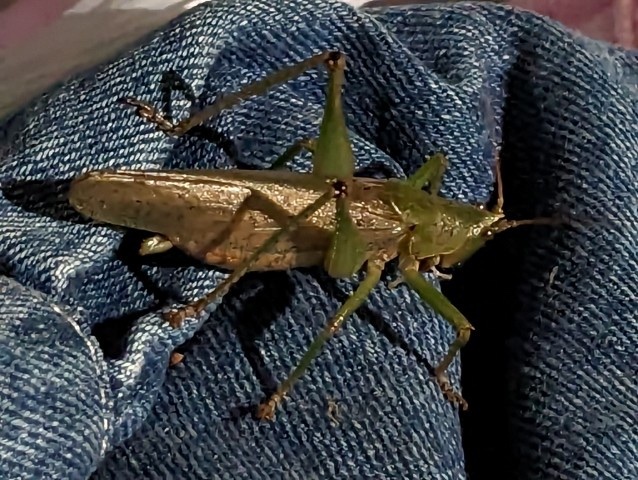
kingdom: Animalia
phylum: Arthropoda
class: Insecta
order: Orthoptera
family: Tettigoniidae
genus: Austrosalomona
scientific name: Austrosalomona falcata
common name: Olive-green coastal katydid
